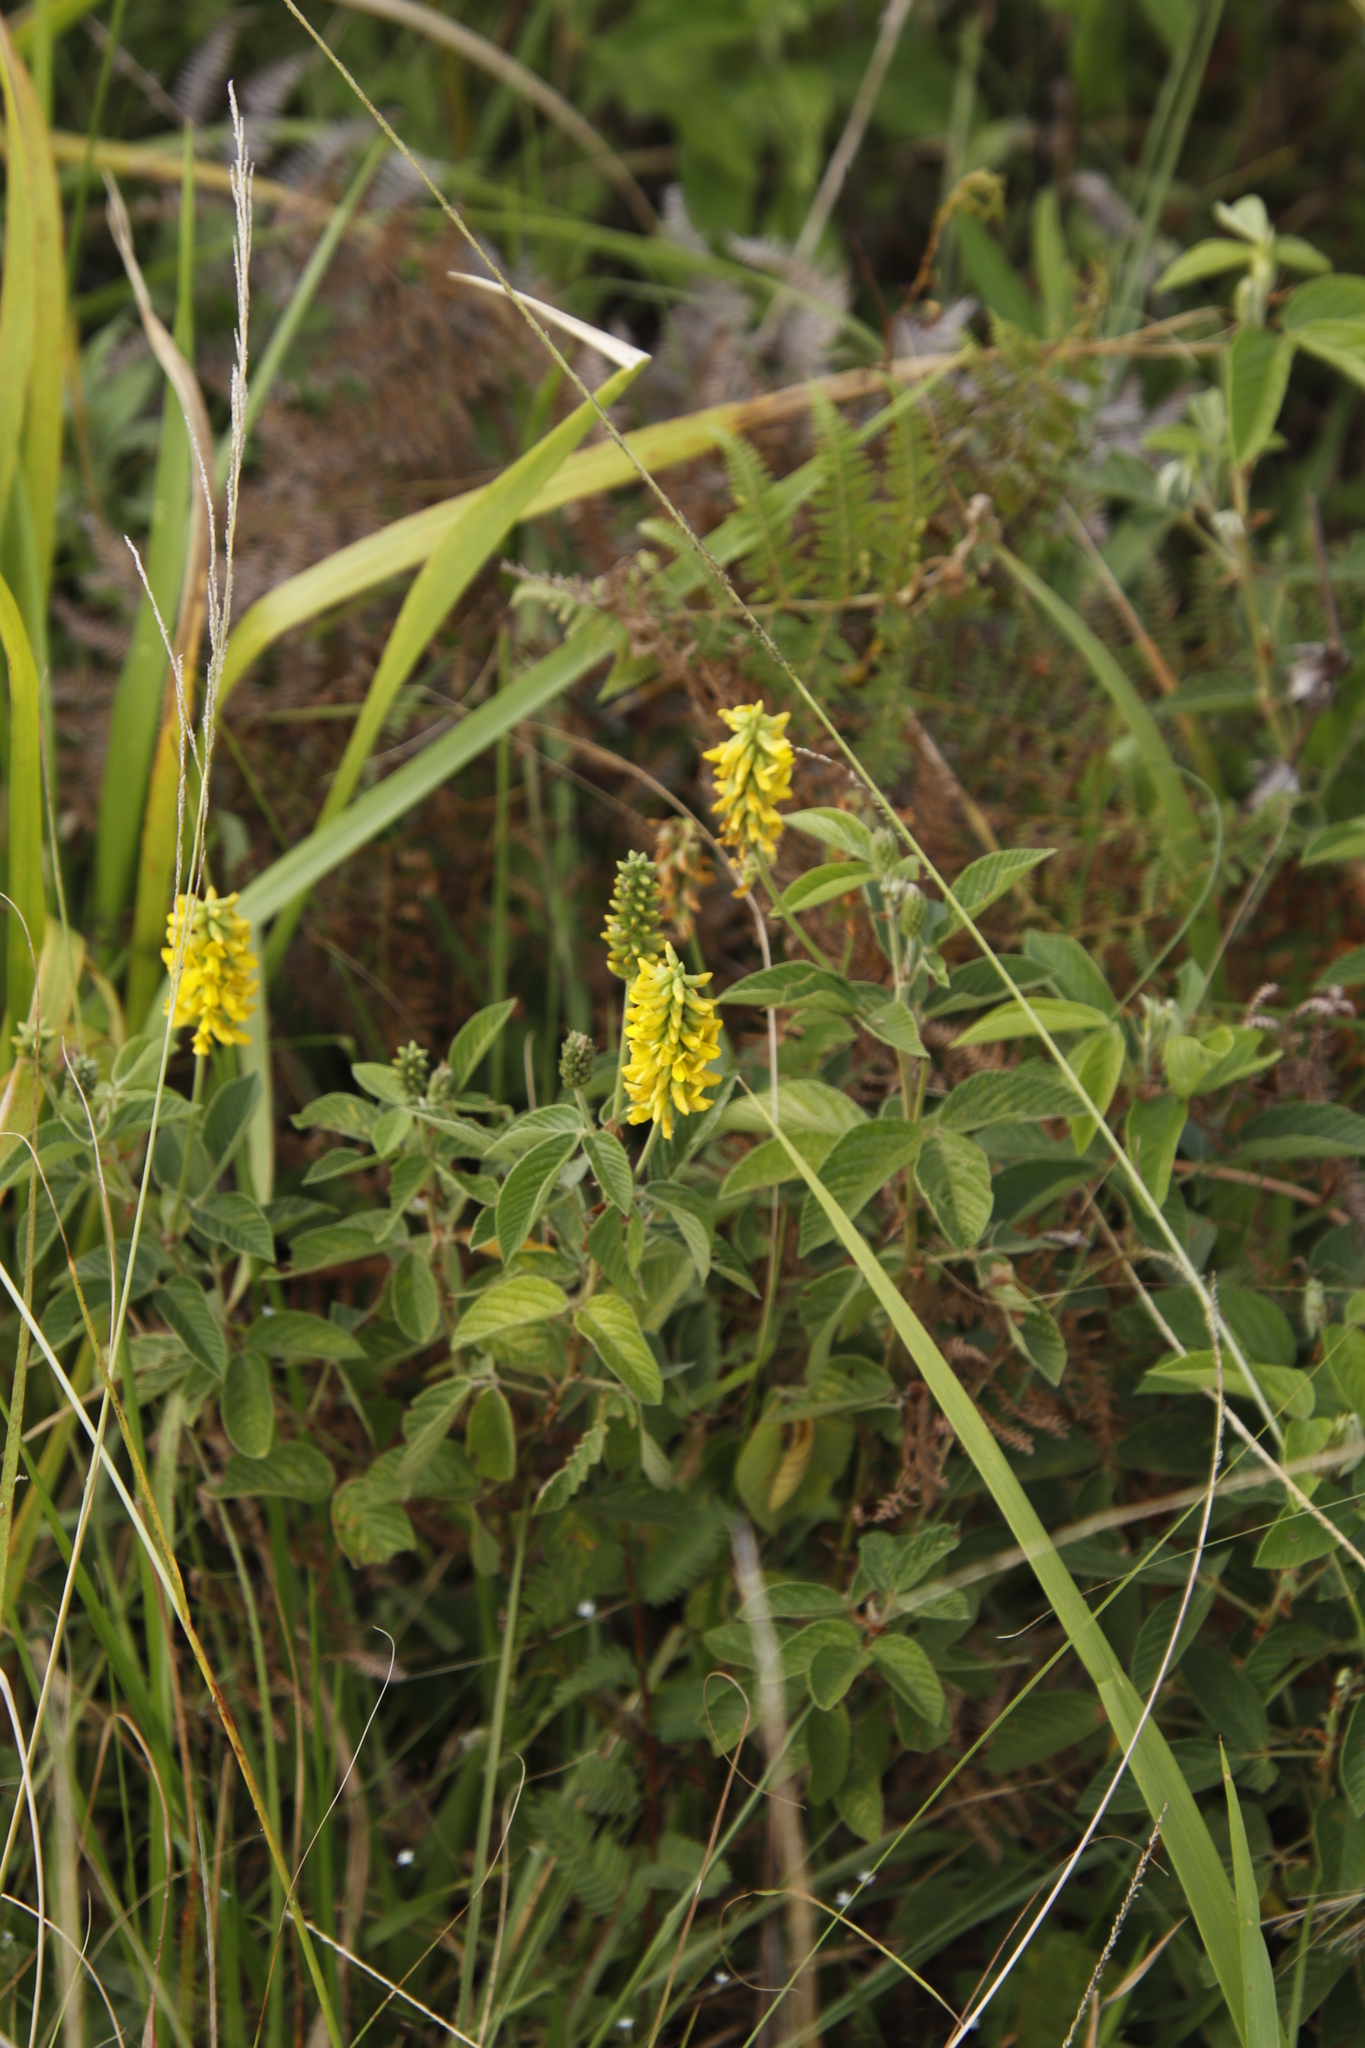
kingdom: Plantae
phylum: Tracheophyta
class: Magnoliopsida
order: Fabales
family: Fabaceae
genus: Eriosema
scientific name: Eriosema parviflorum
